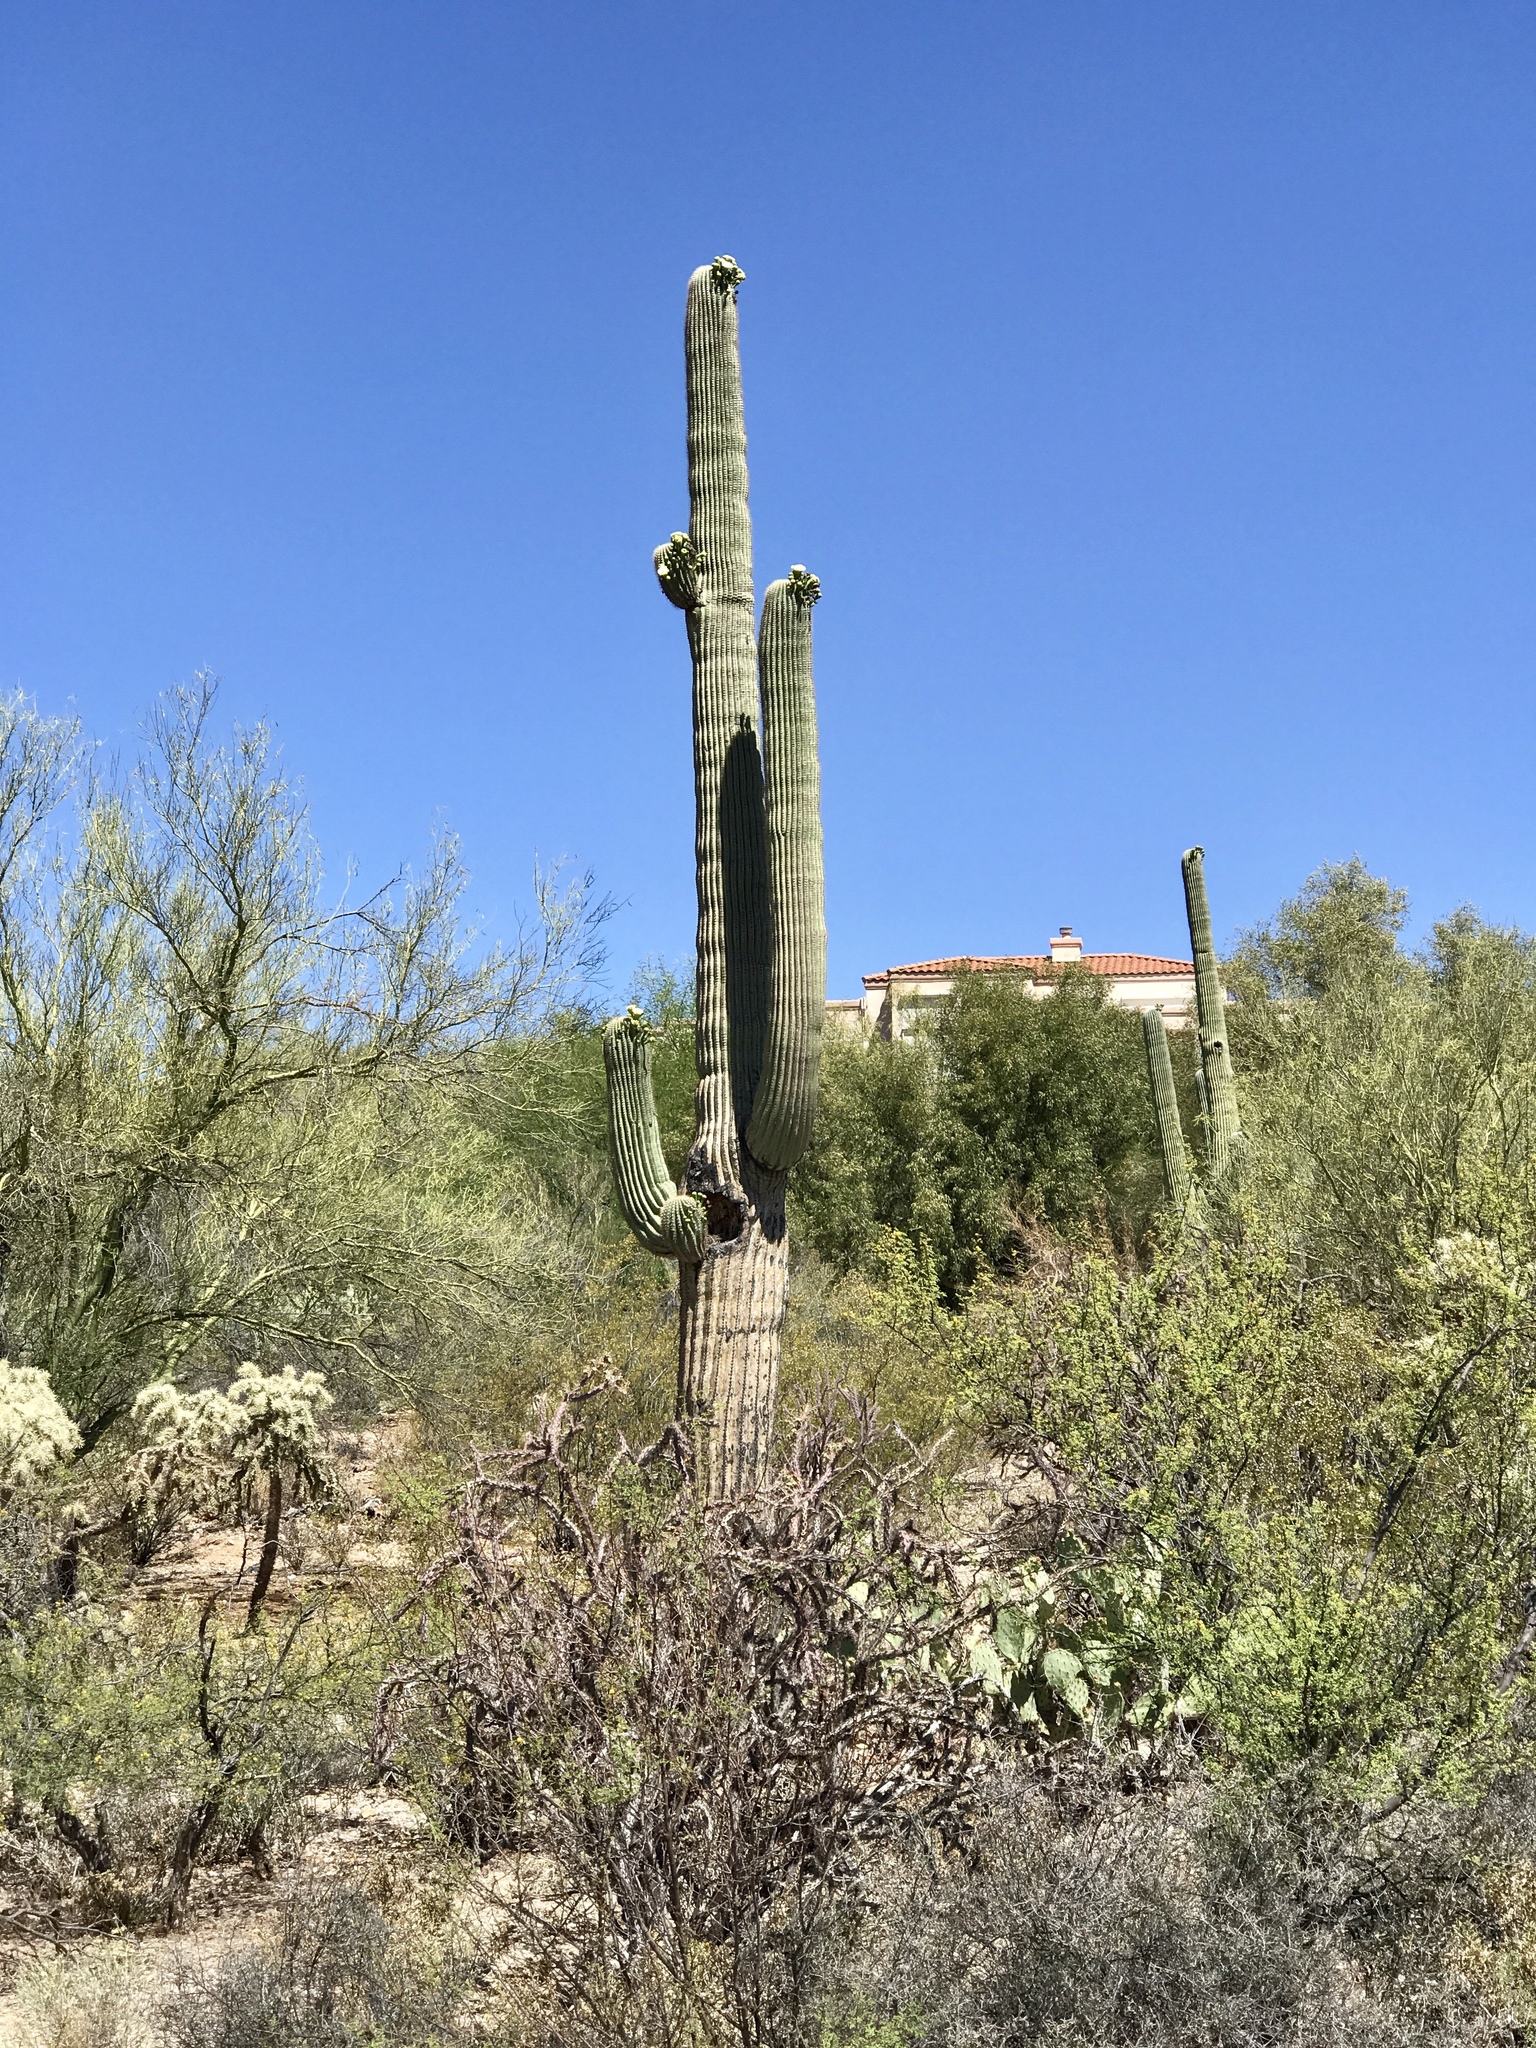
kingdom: Plantae
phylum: Tracheophyta
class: Magnoliopsida
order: Caryophyllales
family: Cactaceae
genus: Carnegiea
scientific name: Carnegiea gigantea
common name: Saguaro
